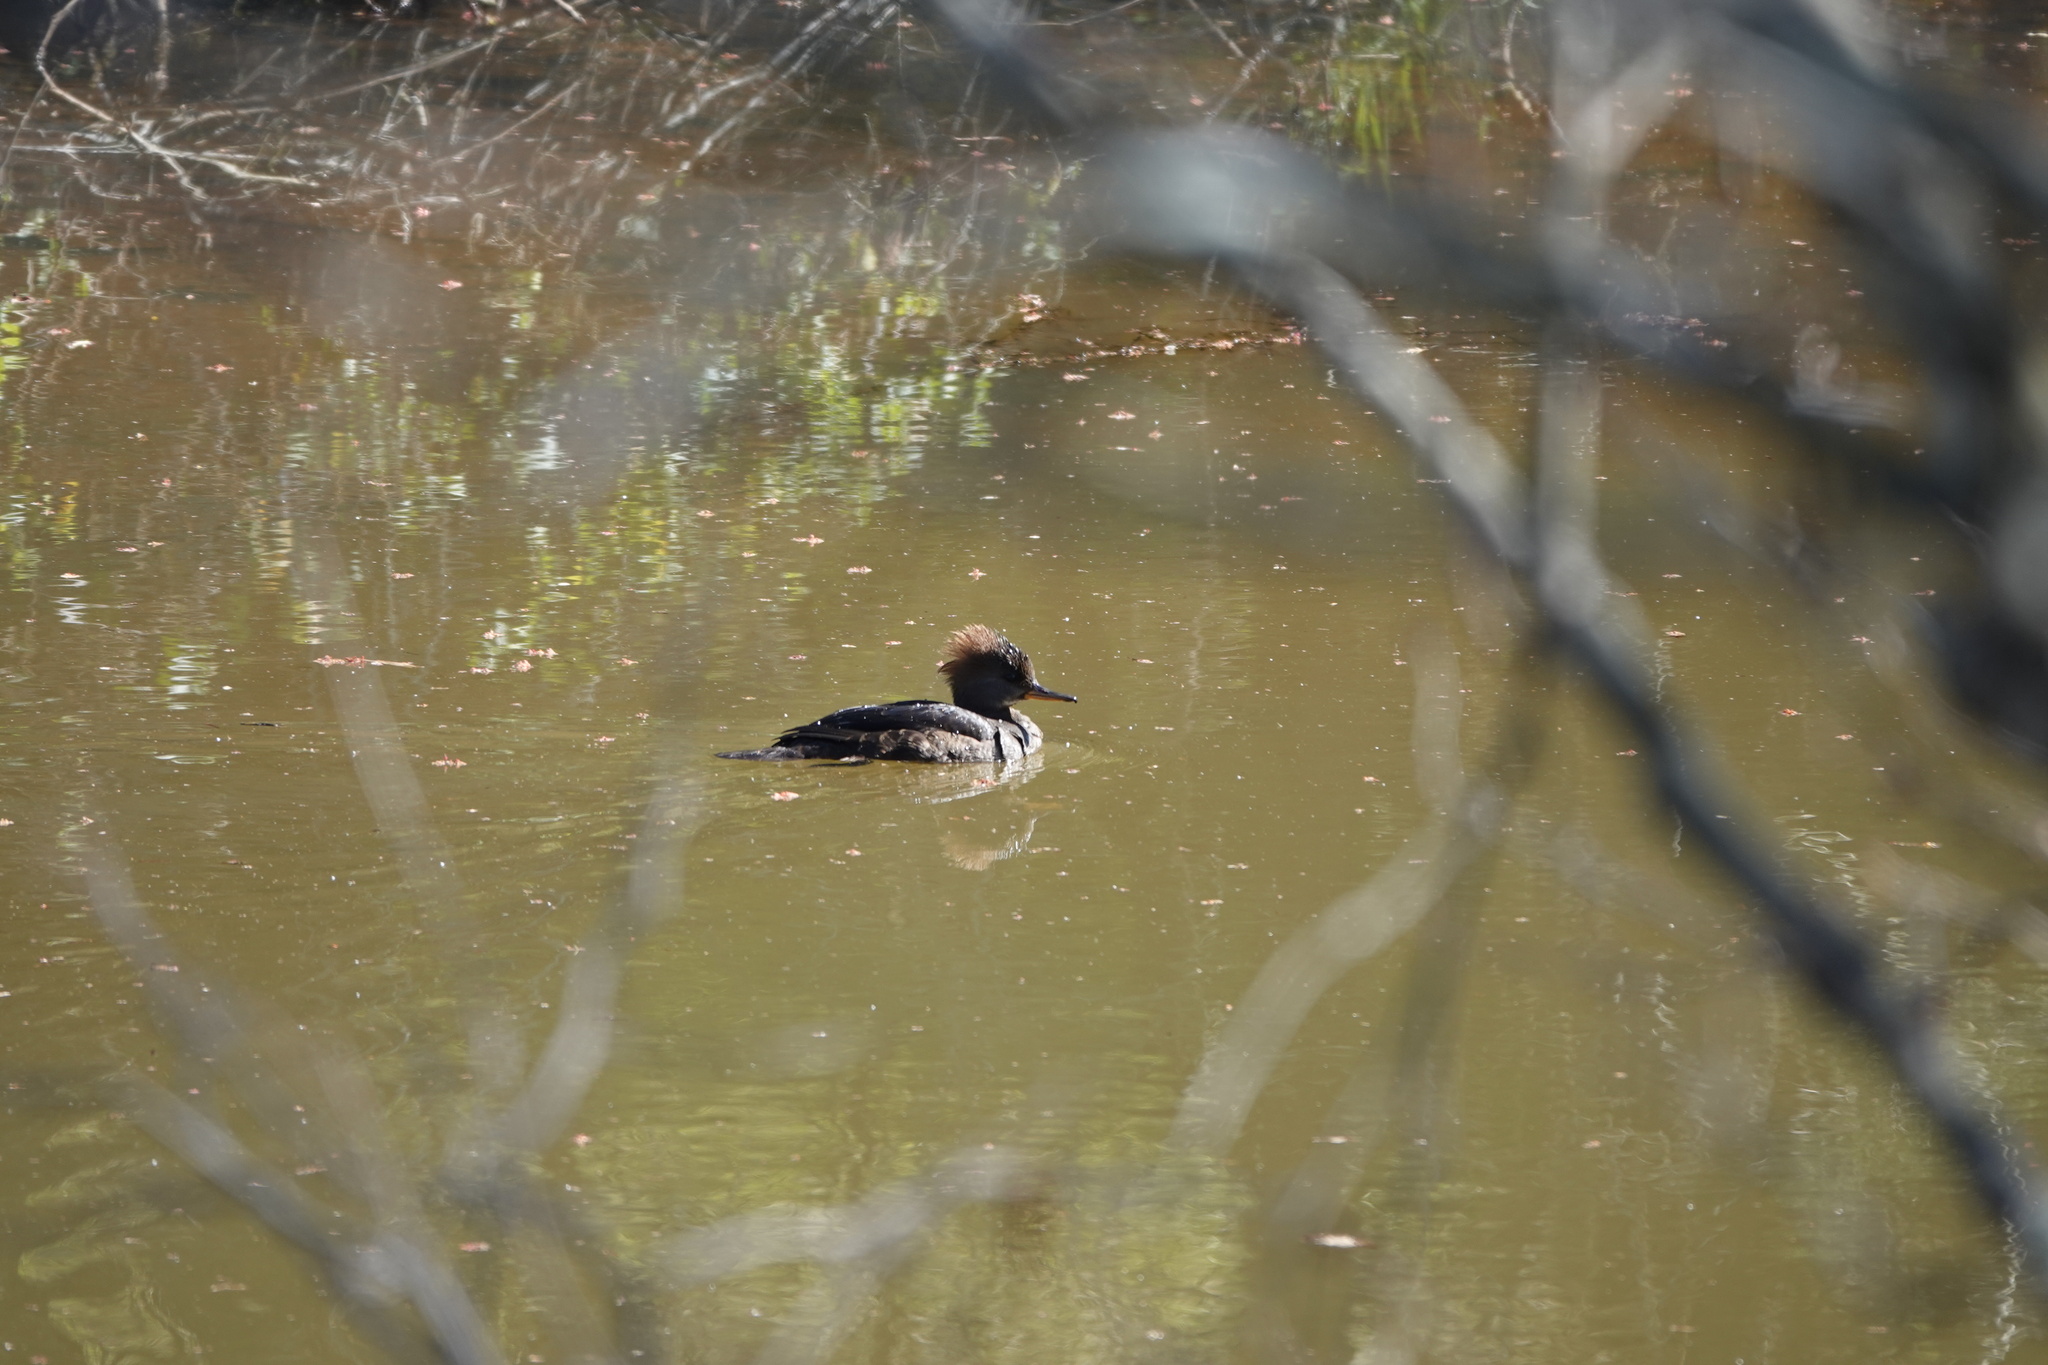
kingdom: Animalia
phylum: Chordata
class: Aves
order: Anseriformes
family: Anatidae
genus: Lophodytes
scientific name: Lophodytes cucullatus
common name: Hooded merganser
